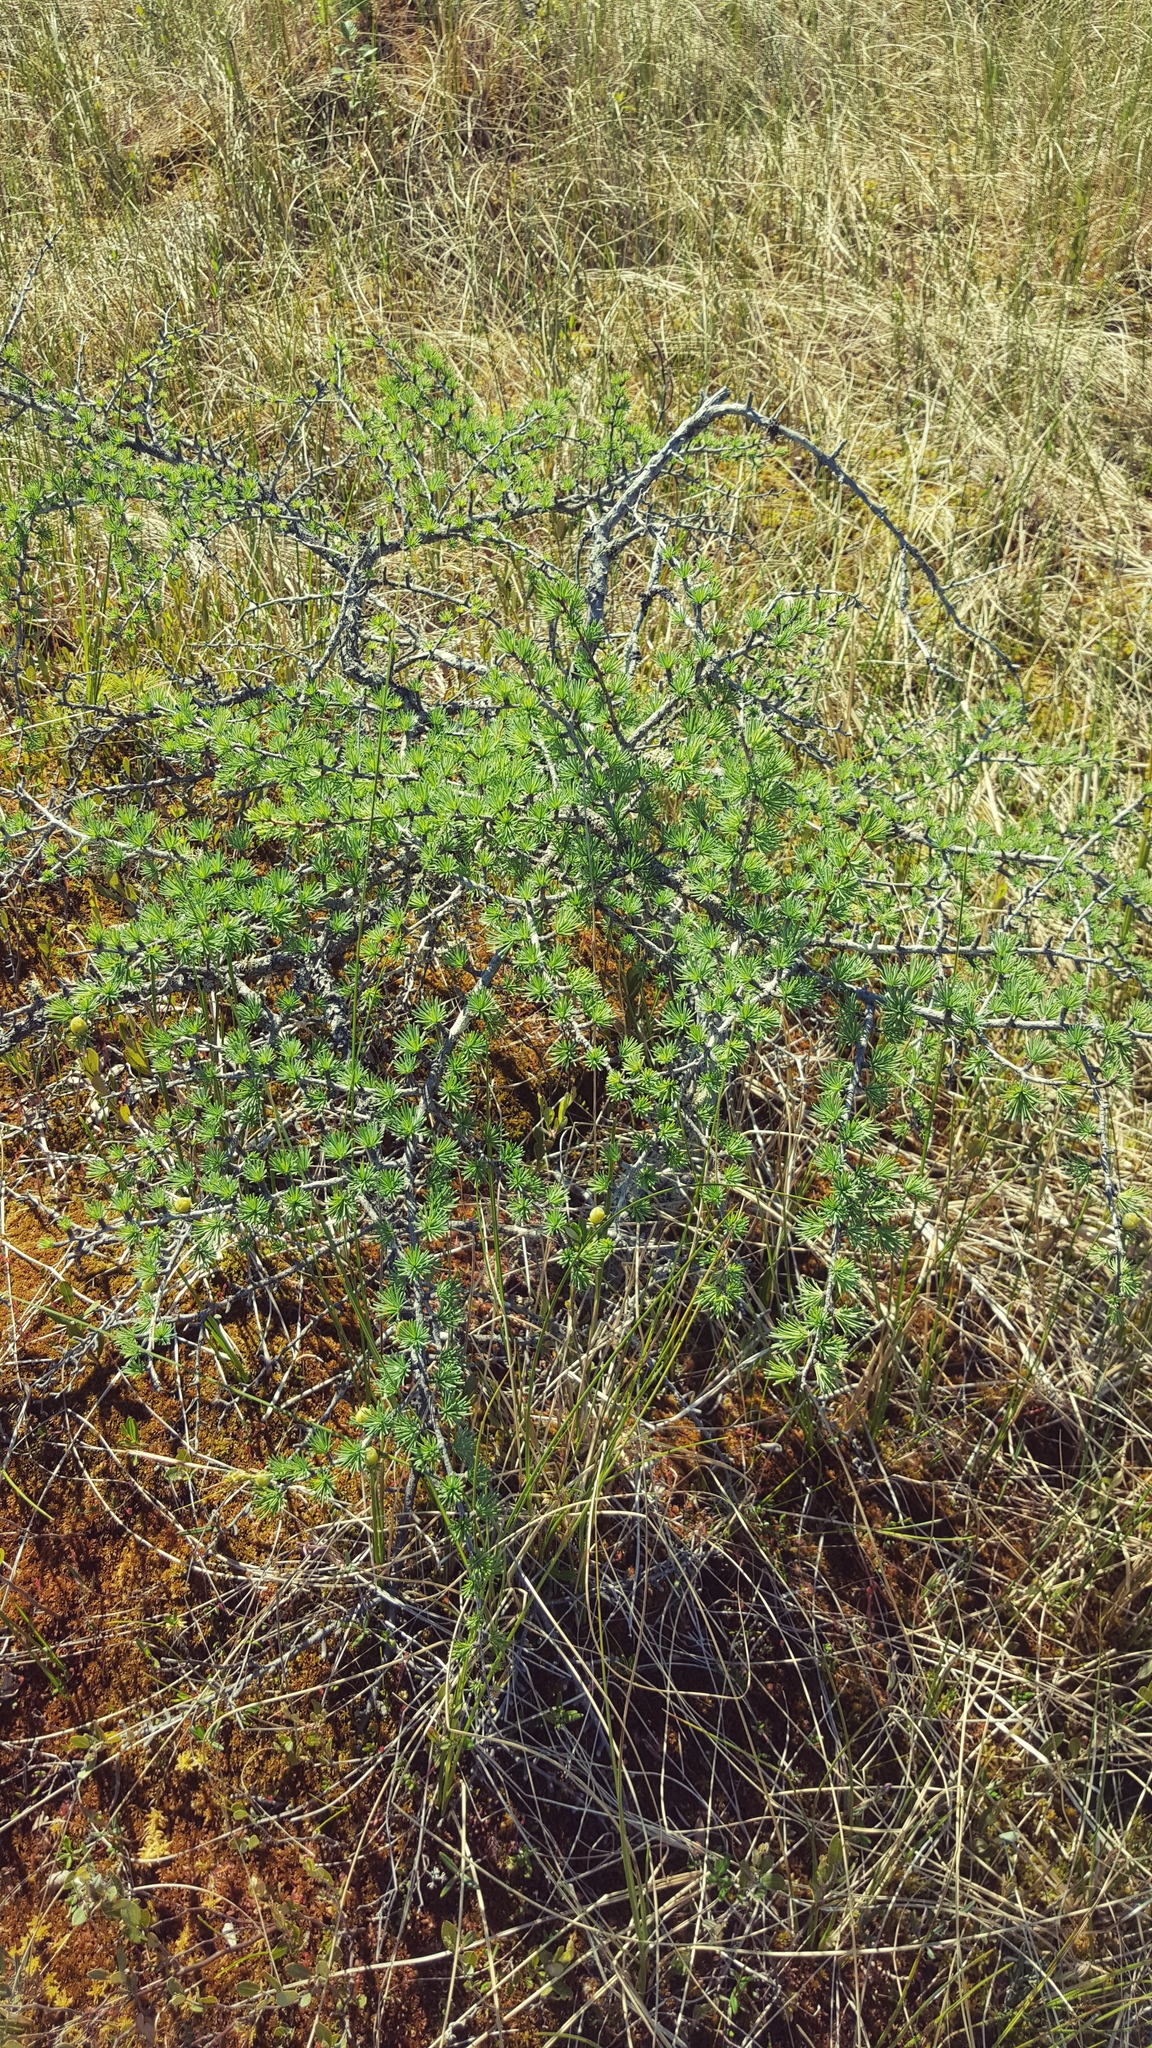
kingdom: Plantae
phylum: Tracheophyta
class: Pinopsida
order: Pinales
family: Pinaceae
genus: Larix
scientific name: Larix laricina
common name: American larch
